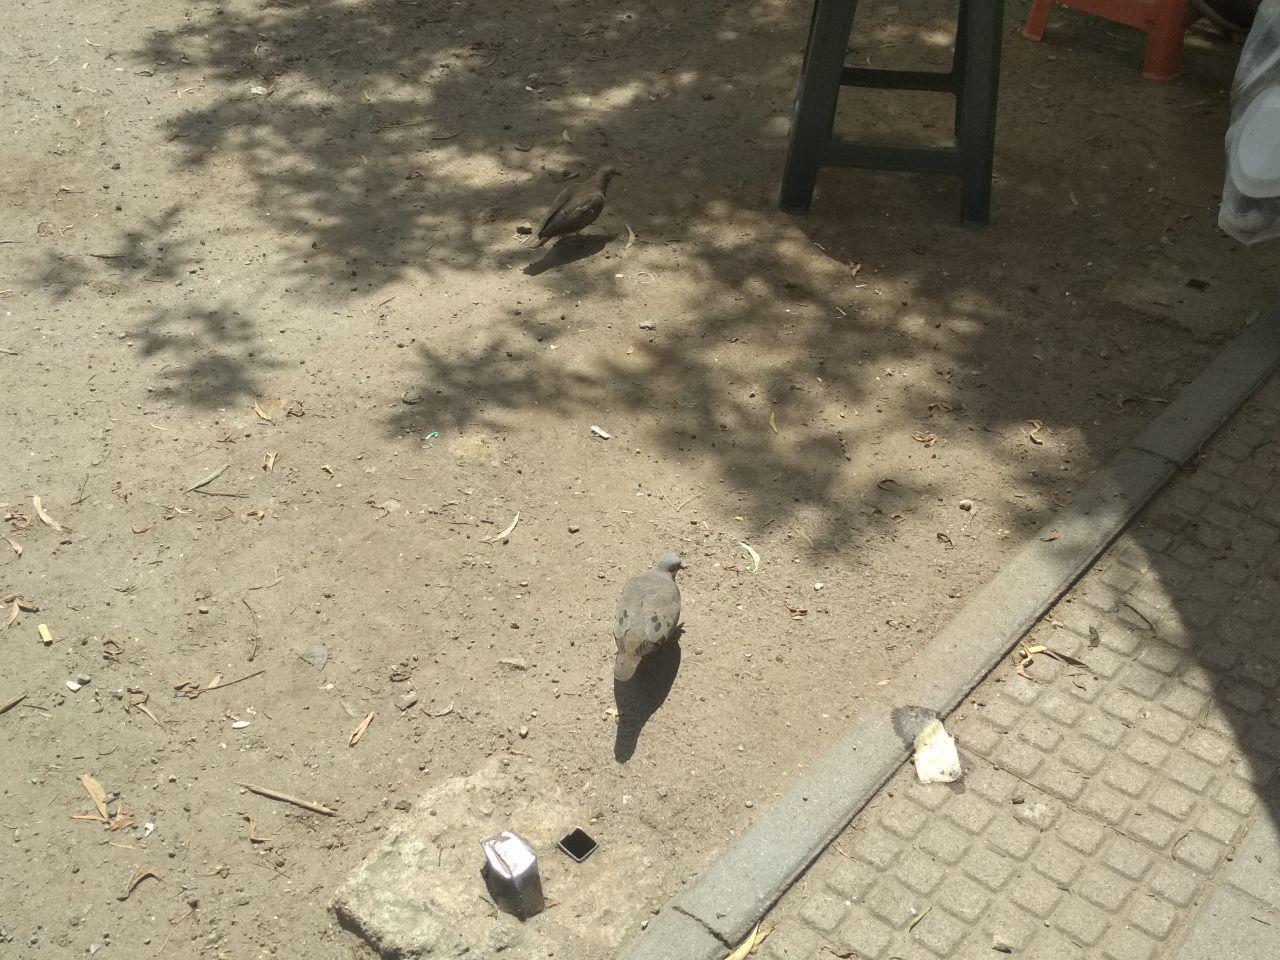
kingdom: Animalia
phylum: Chordata
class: Aves
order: Columbiformes
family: Columbidae
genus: Zenaida
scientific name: Zenaida auriculata
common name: Eared dove
